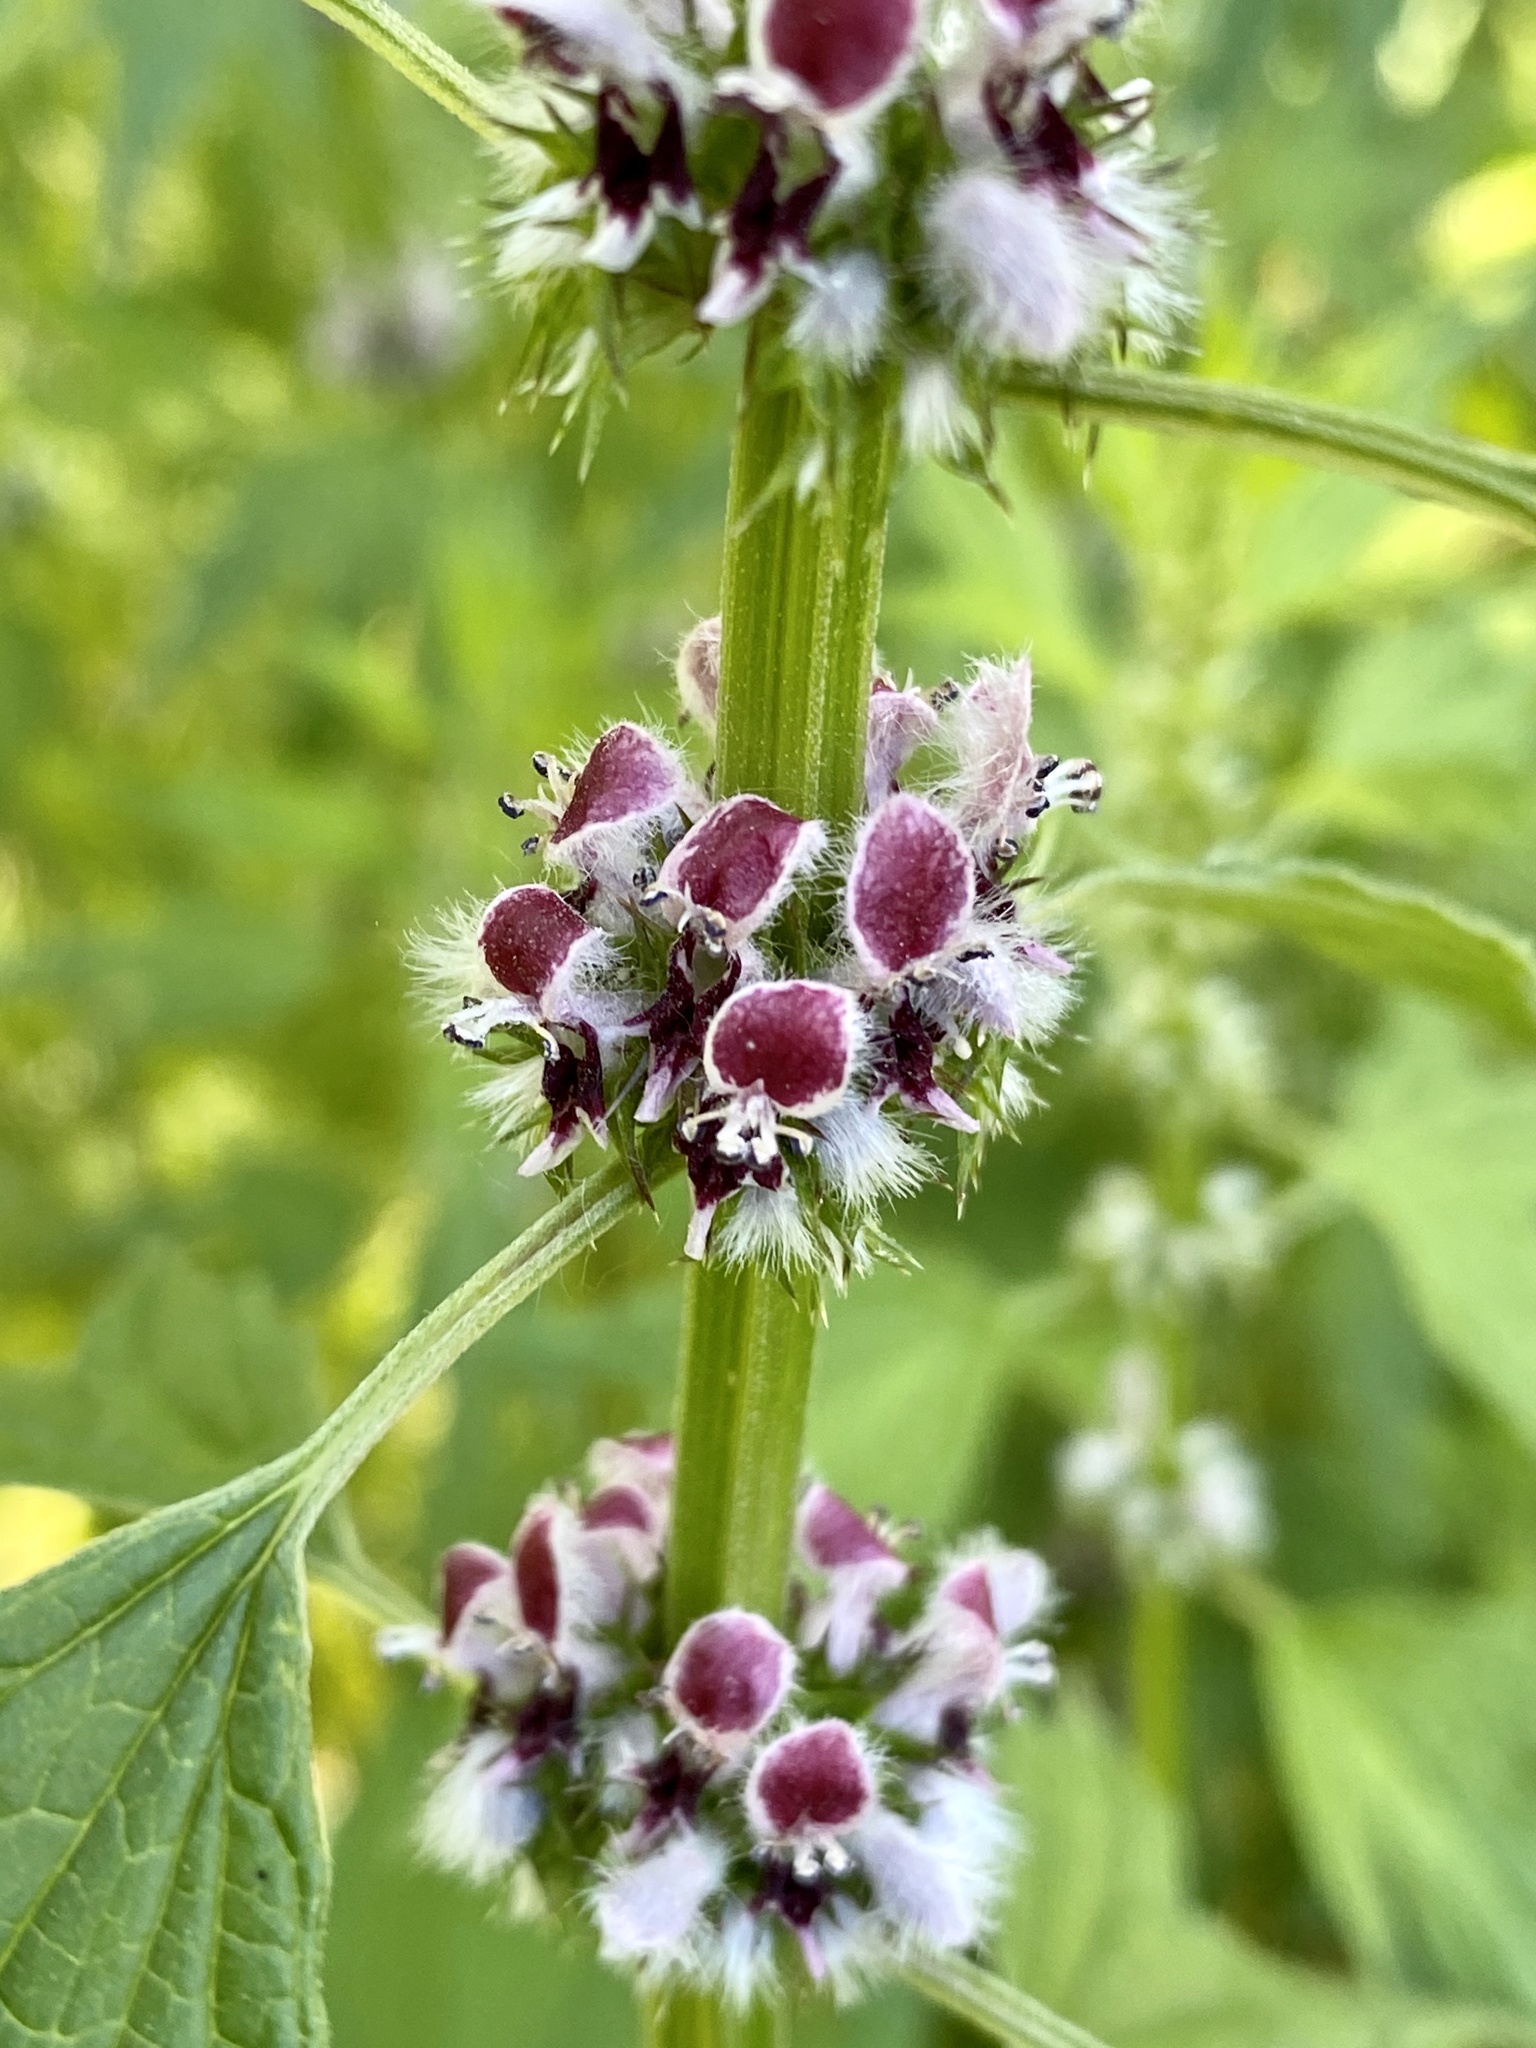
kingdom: Plantae
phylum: Tracheophyta
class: Magnoliopsida
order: Lamiales
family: Lamiaceae
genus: Leonurus
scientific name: Leonurus cardiaca
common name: Motherwort
